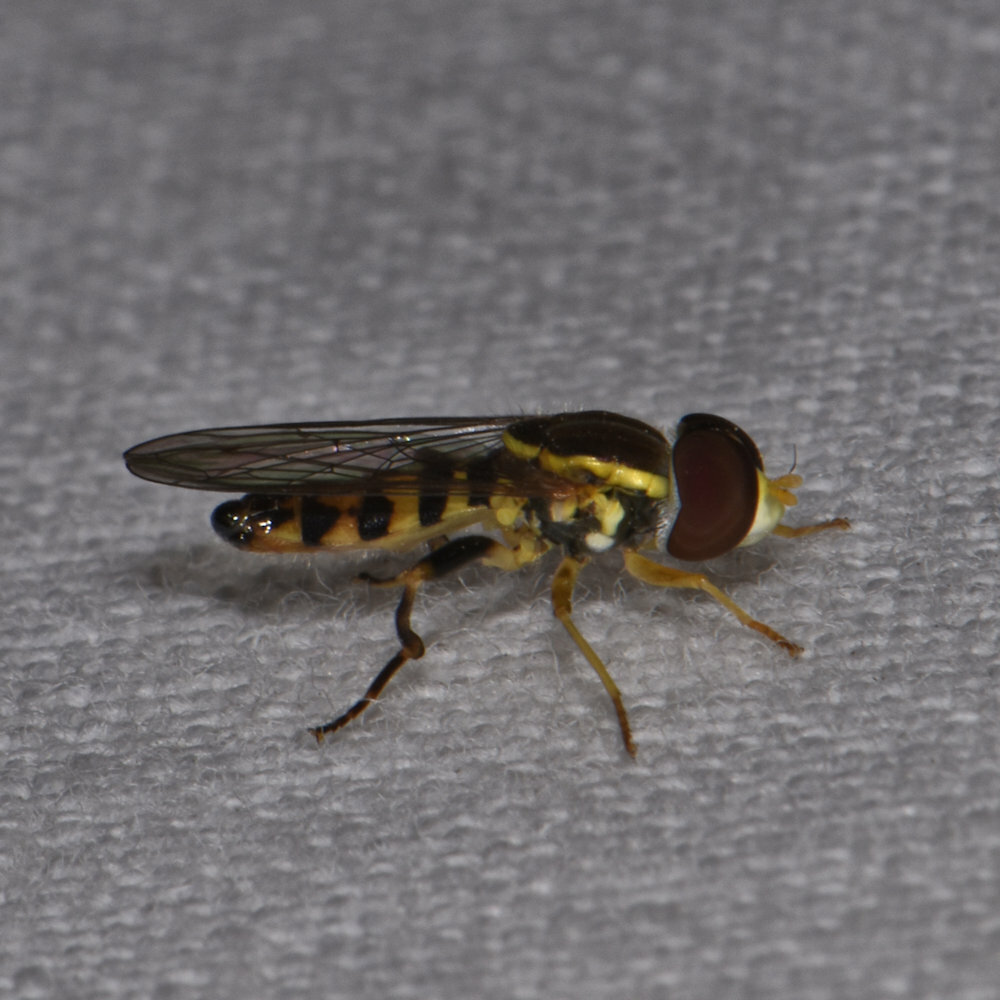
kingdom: Animalia
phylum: Arthropoda
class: Insecta
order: Diptera
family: Syrphidae
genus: Toxomerus
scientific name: Toxomerus geminatus
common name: Eastern calligrapher
